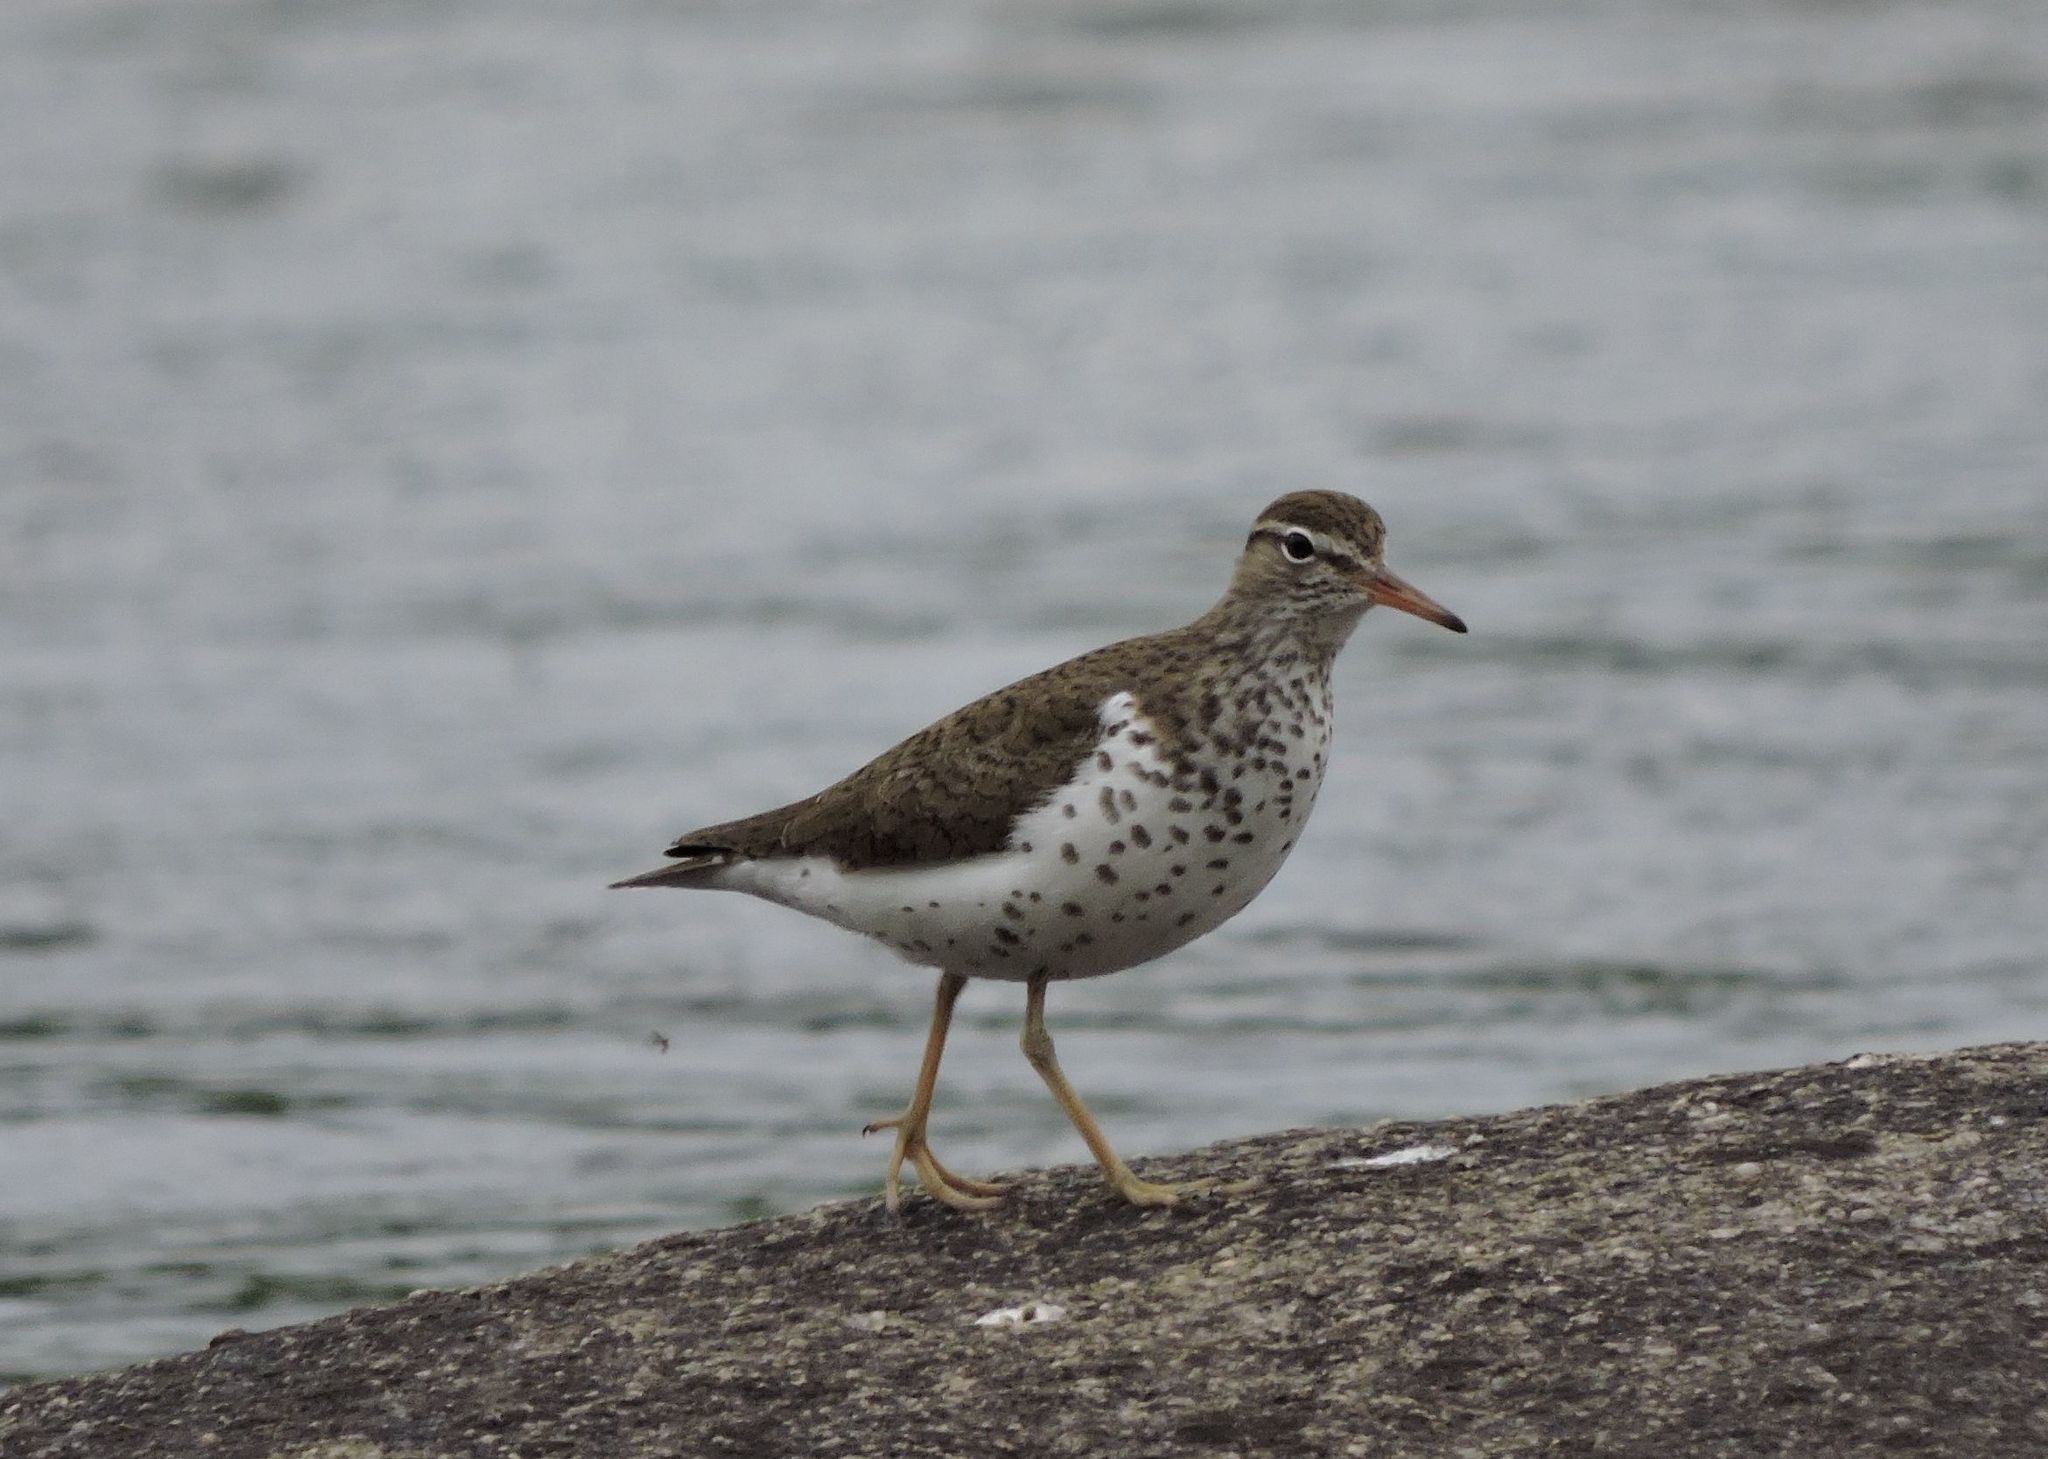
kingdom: Animalia
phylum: Chordata
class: Aves
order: Charadriiformes
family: Scolopacidae
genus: Actitis
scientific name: Actitis macularius
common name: Spotted sandpiper
